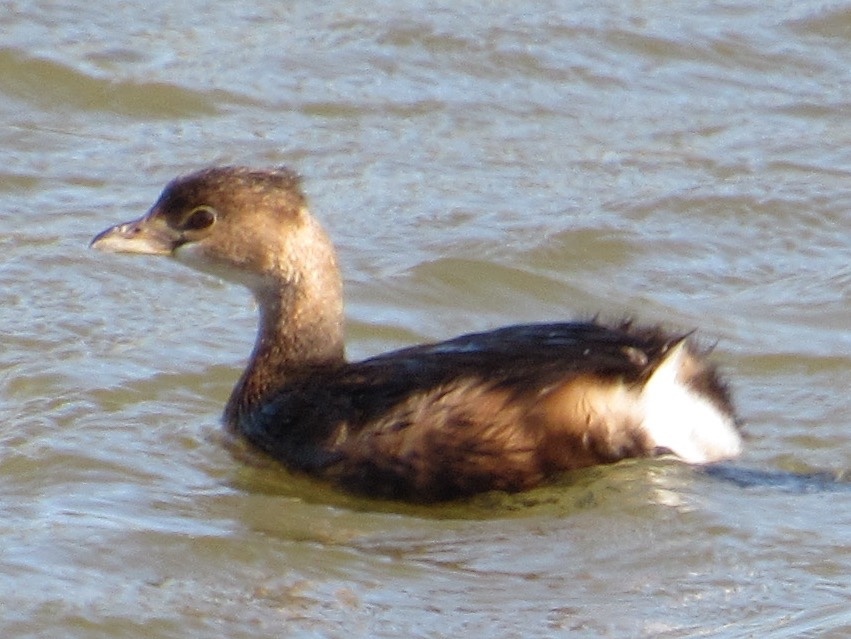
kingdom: Animalia
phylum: Chordata
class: Aves
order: Podicipediformes
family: Podicipedidae
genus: Podilymbus
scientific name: Podilymbus podiceps
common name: Pied-billed grebe
